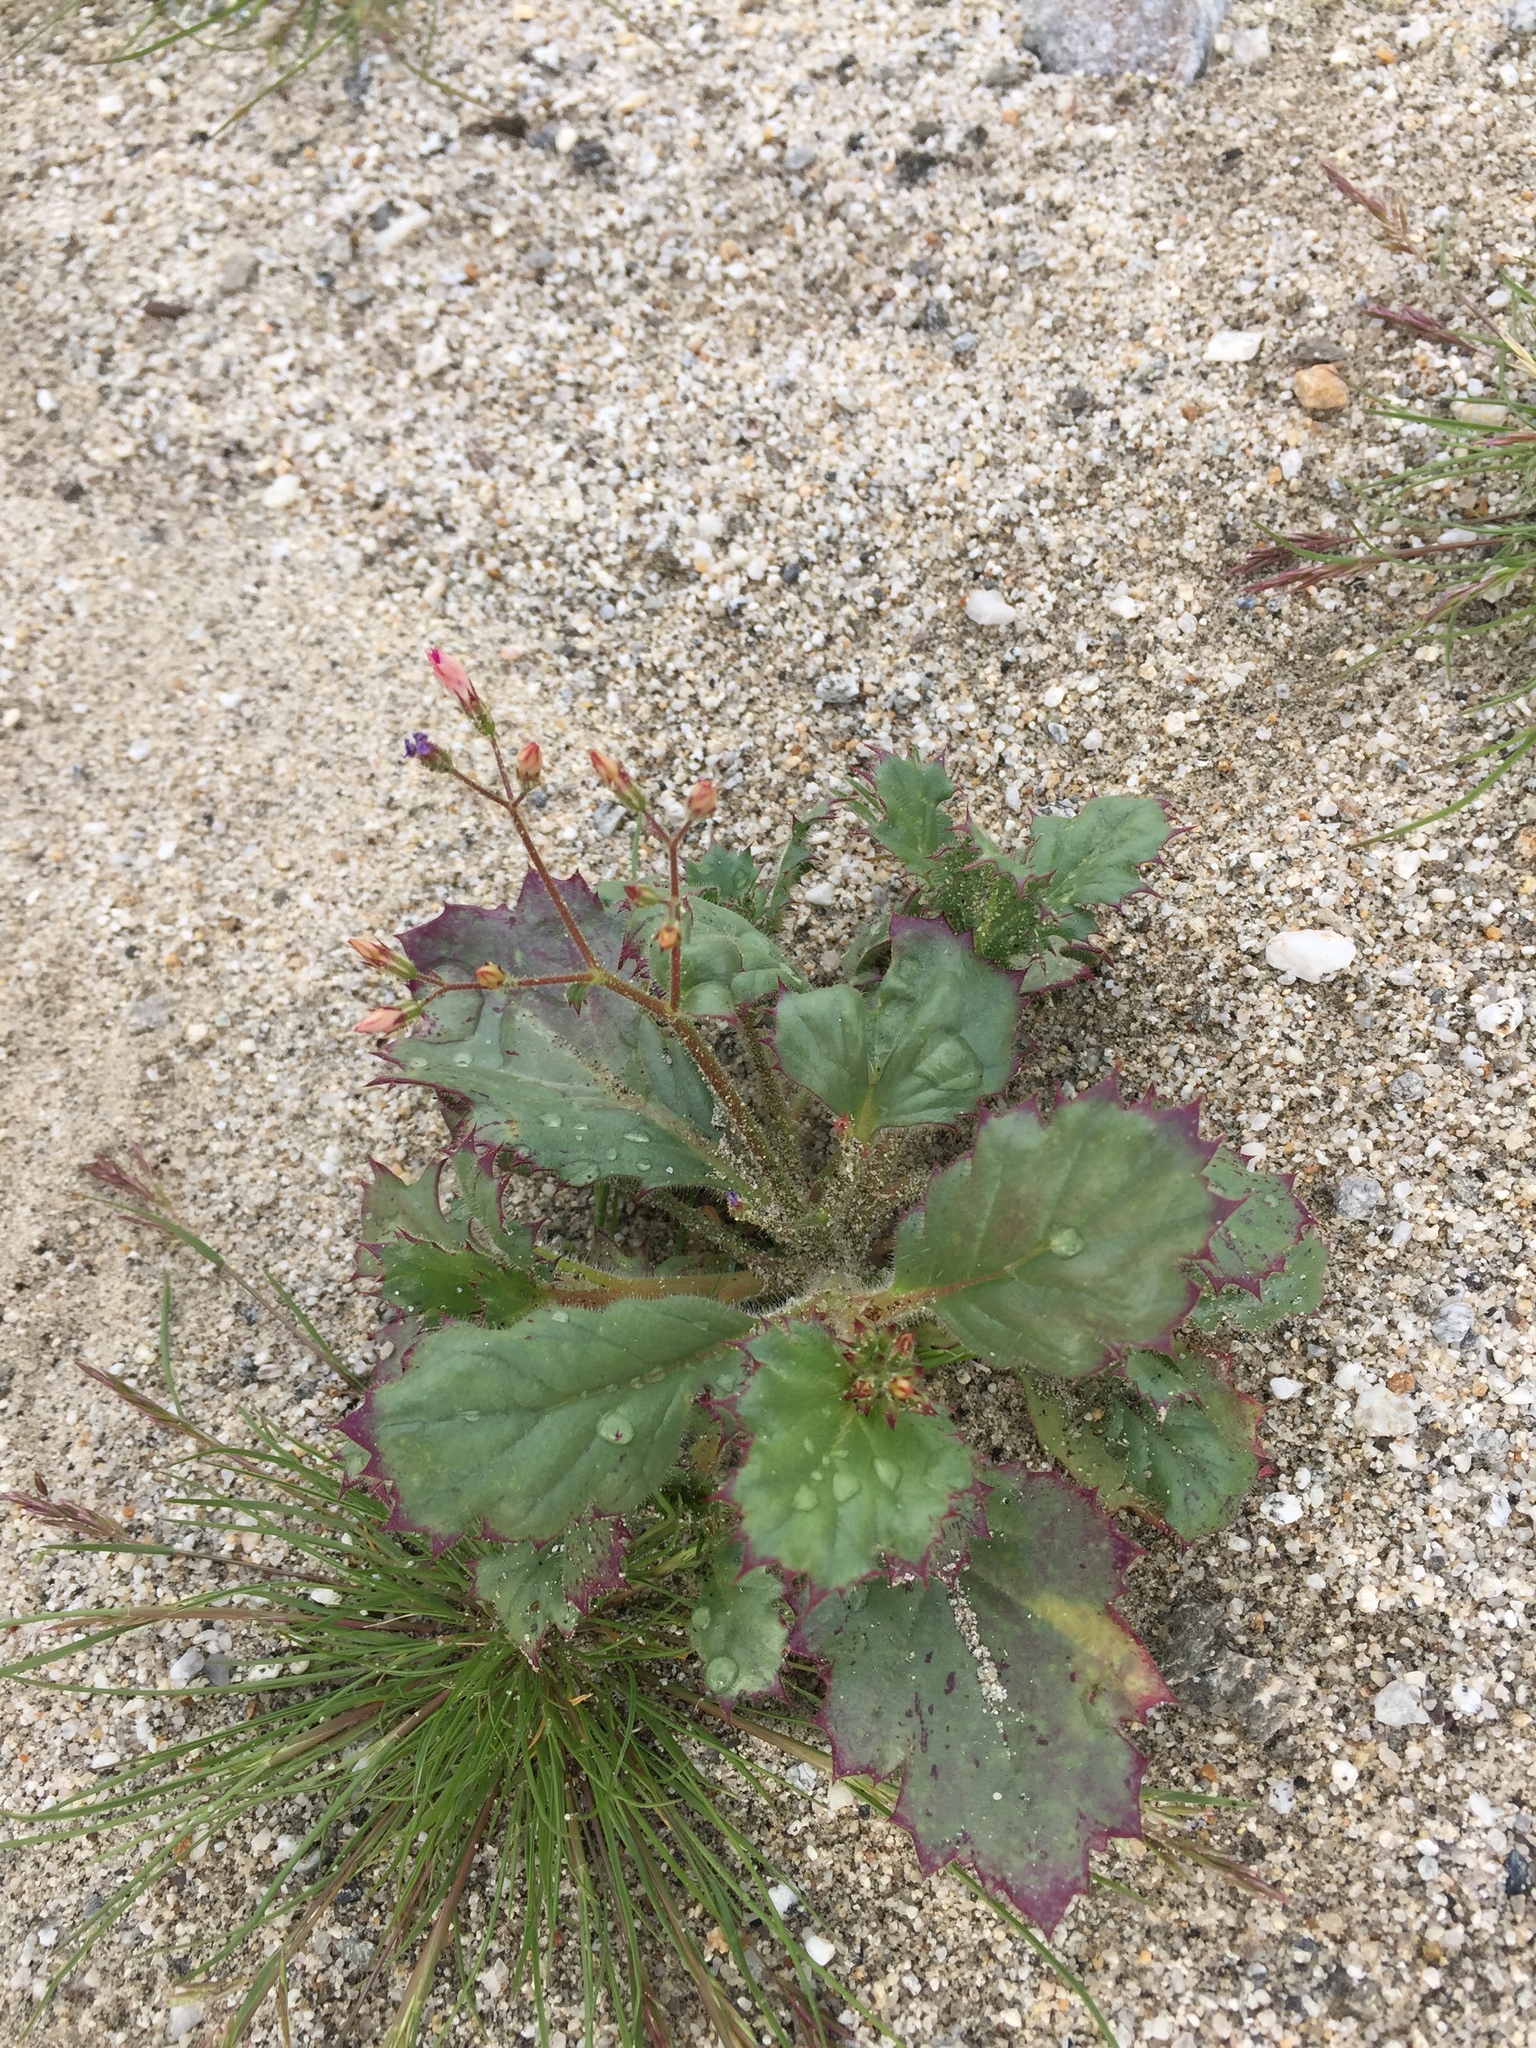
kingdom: Plantae
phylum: Tracheophyta
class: Magnoliopsida
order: Ericales
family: Polemoniaceae
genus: Aliciella
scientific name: Aliciella latifolia
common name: Broad-leaf gilia
